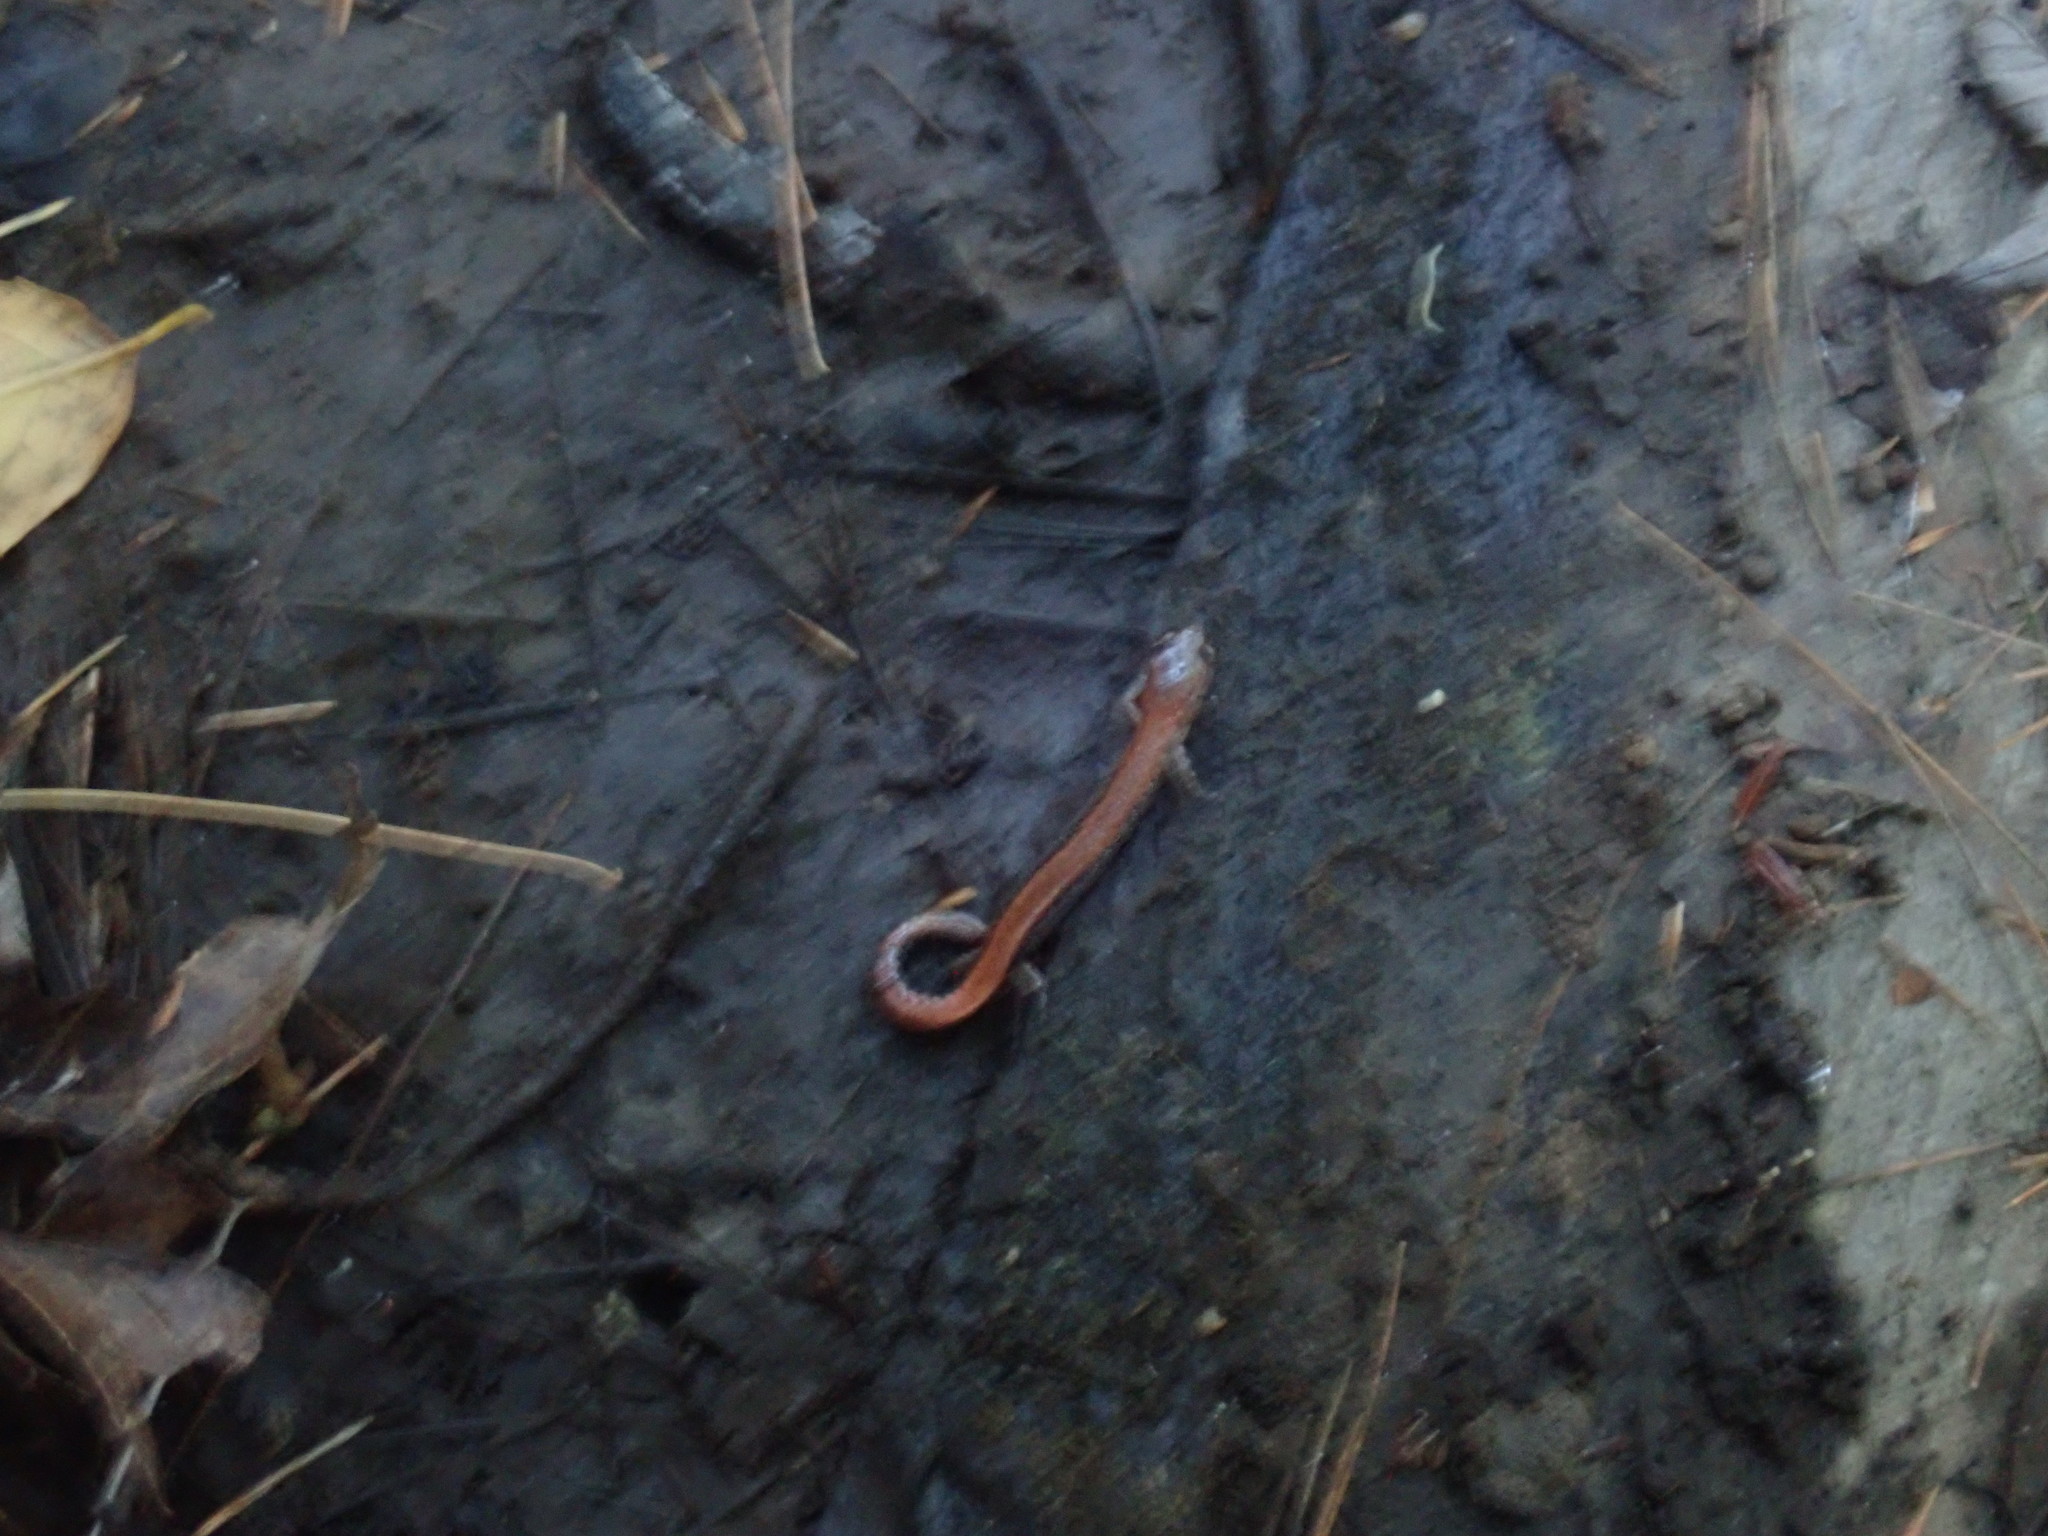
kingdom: Animalia
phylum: Chordata
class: Amphibia
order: Caudata
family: Plethodontidae
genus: Plethodon
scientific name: Plethodon cinereus
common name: Redback salamander
